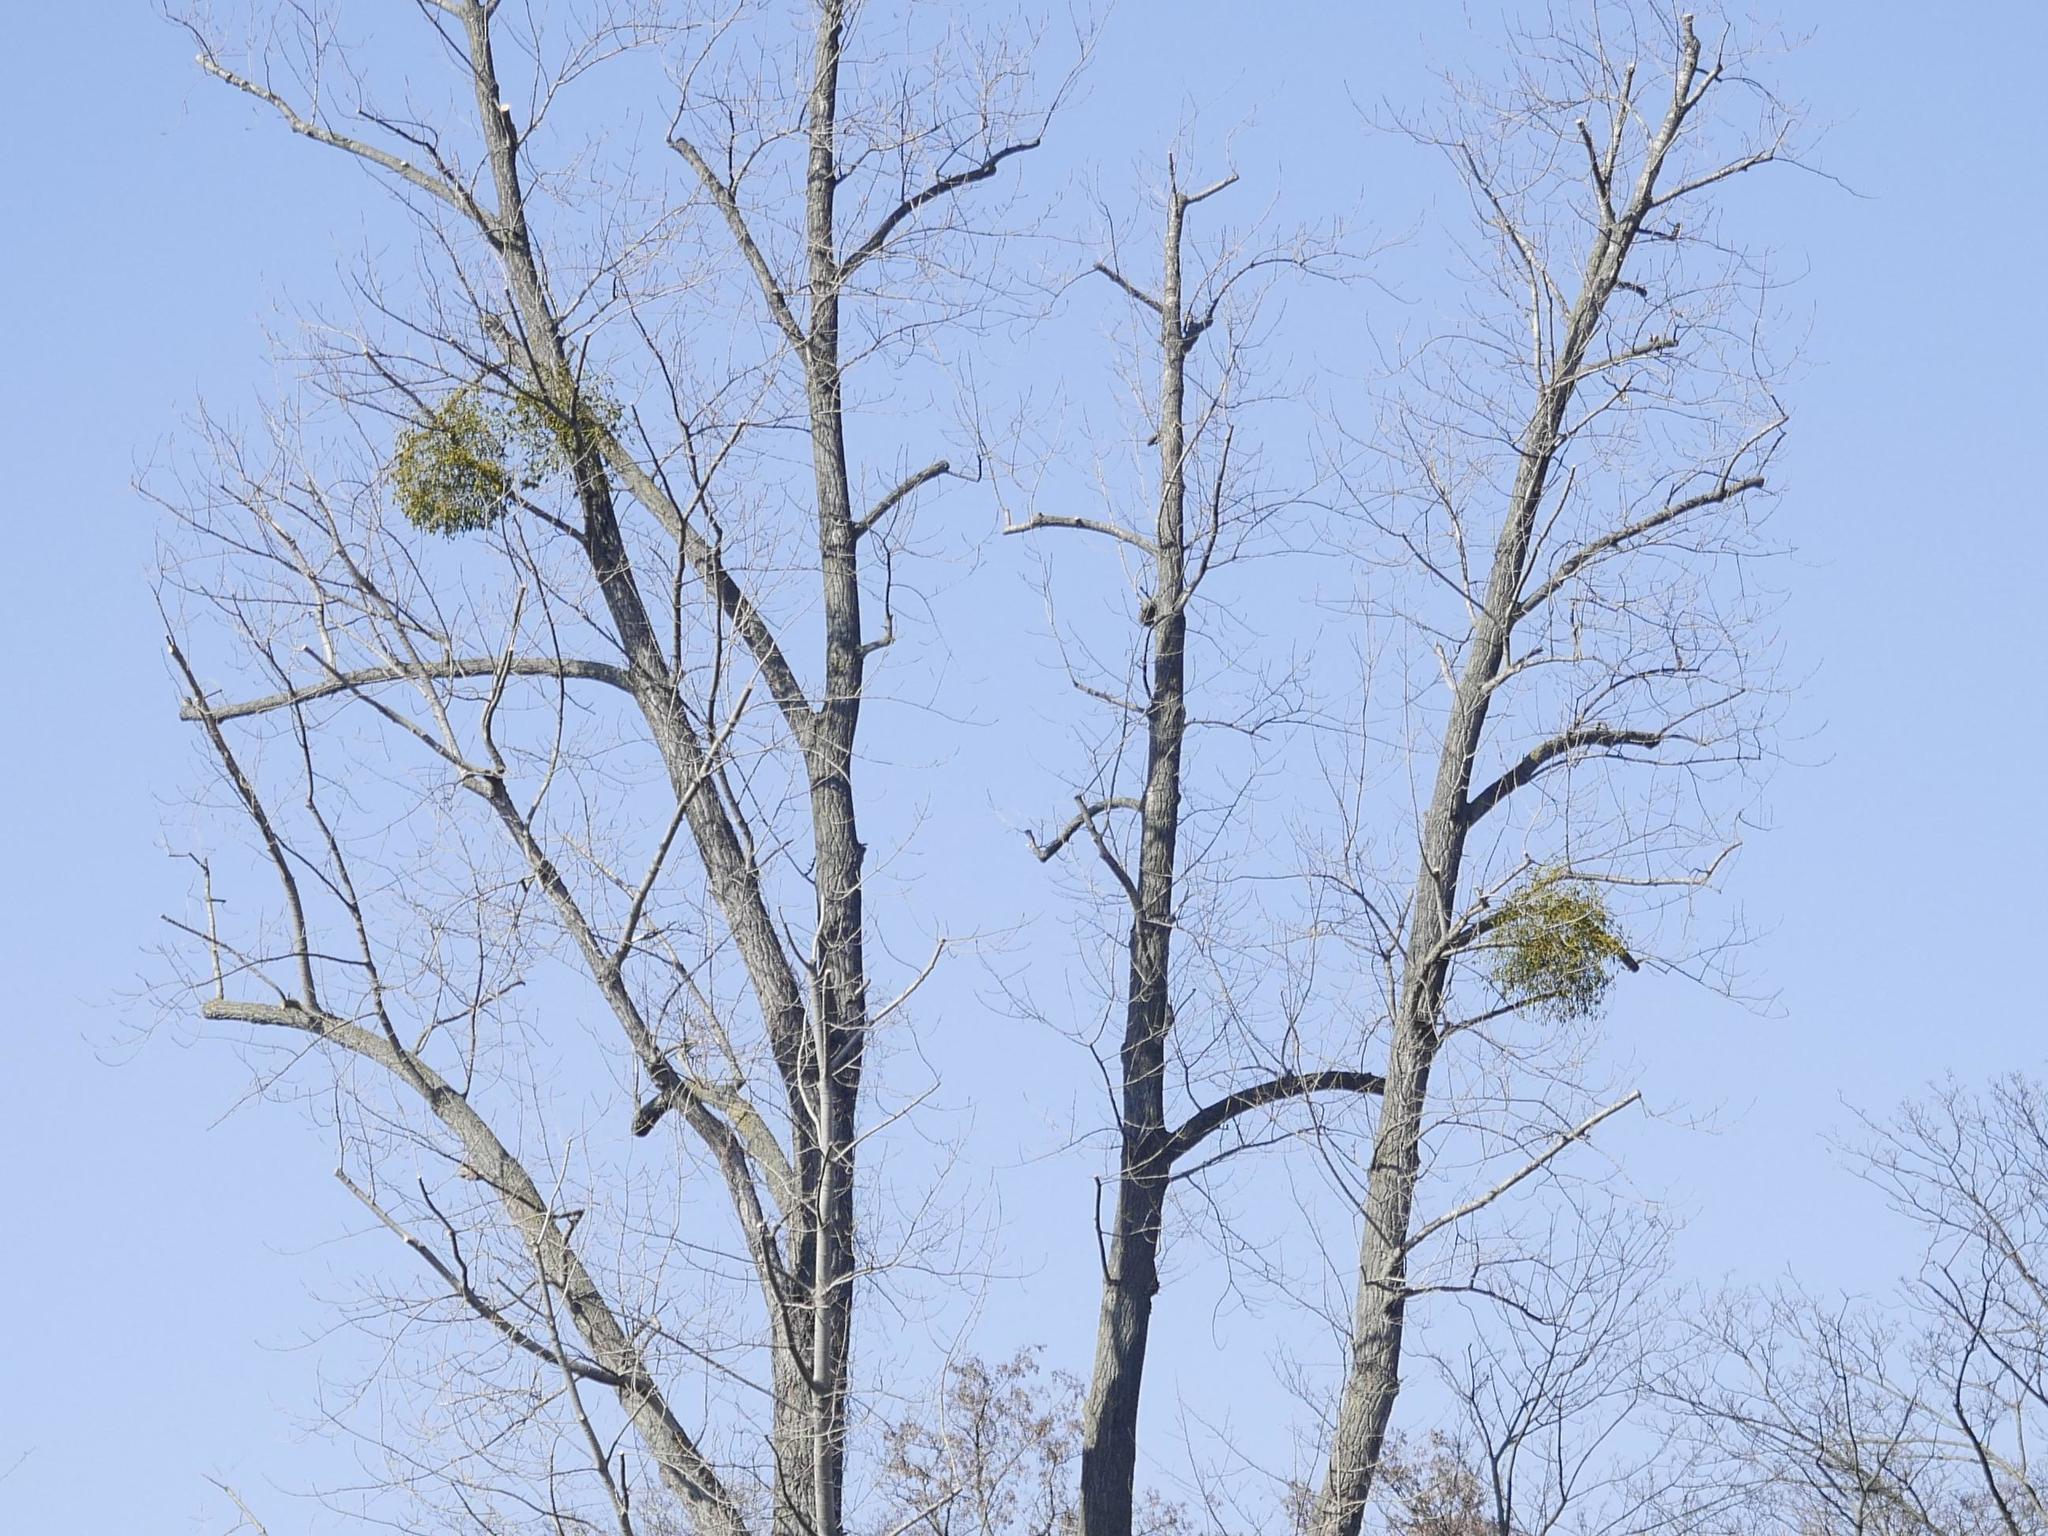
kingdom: Plantae
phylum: Tracheophyta
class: Magnoliopsida
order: Santalales
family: Viscaceae
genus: Viscum
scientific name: Viscum album
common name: Mistletoe
